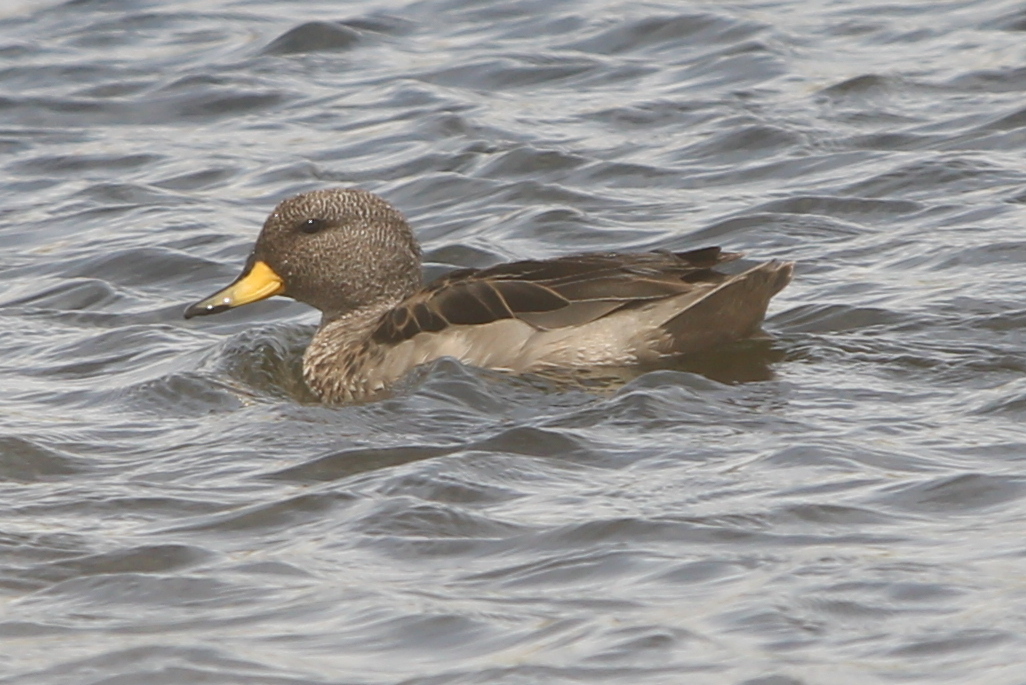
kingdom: Animalia
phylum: Chordata
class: Aves
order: Anseriformes
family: Anatidae
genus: Anas
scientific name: Anas flavirostris
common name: Yellow-billed teal
